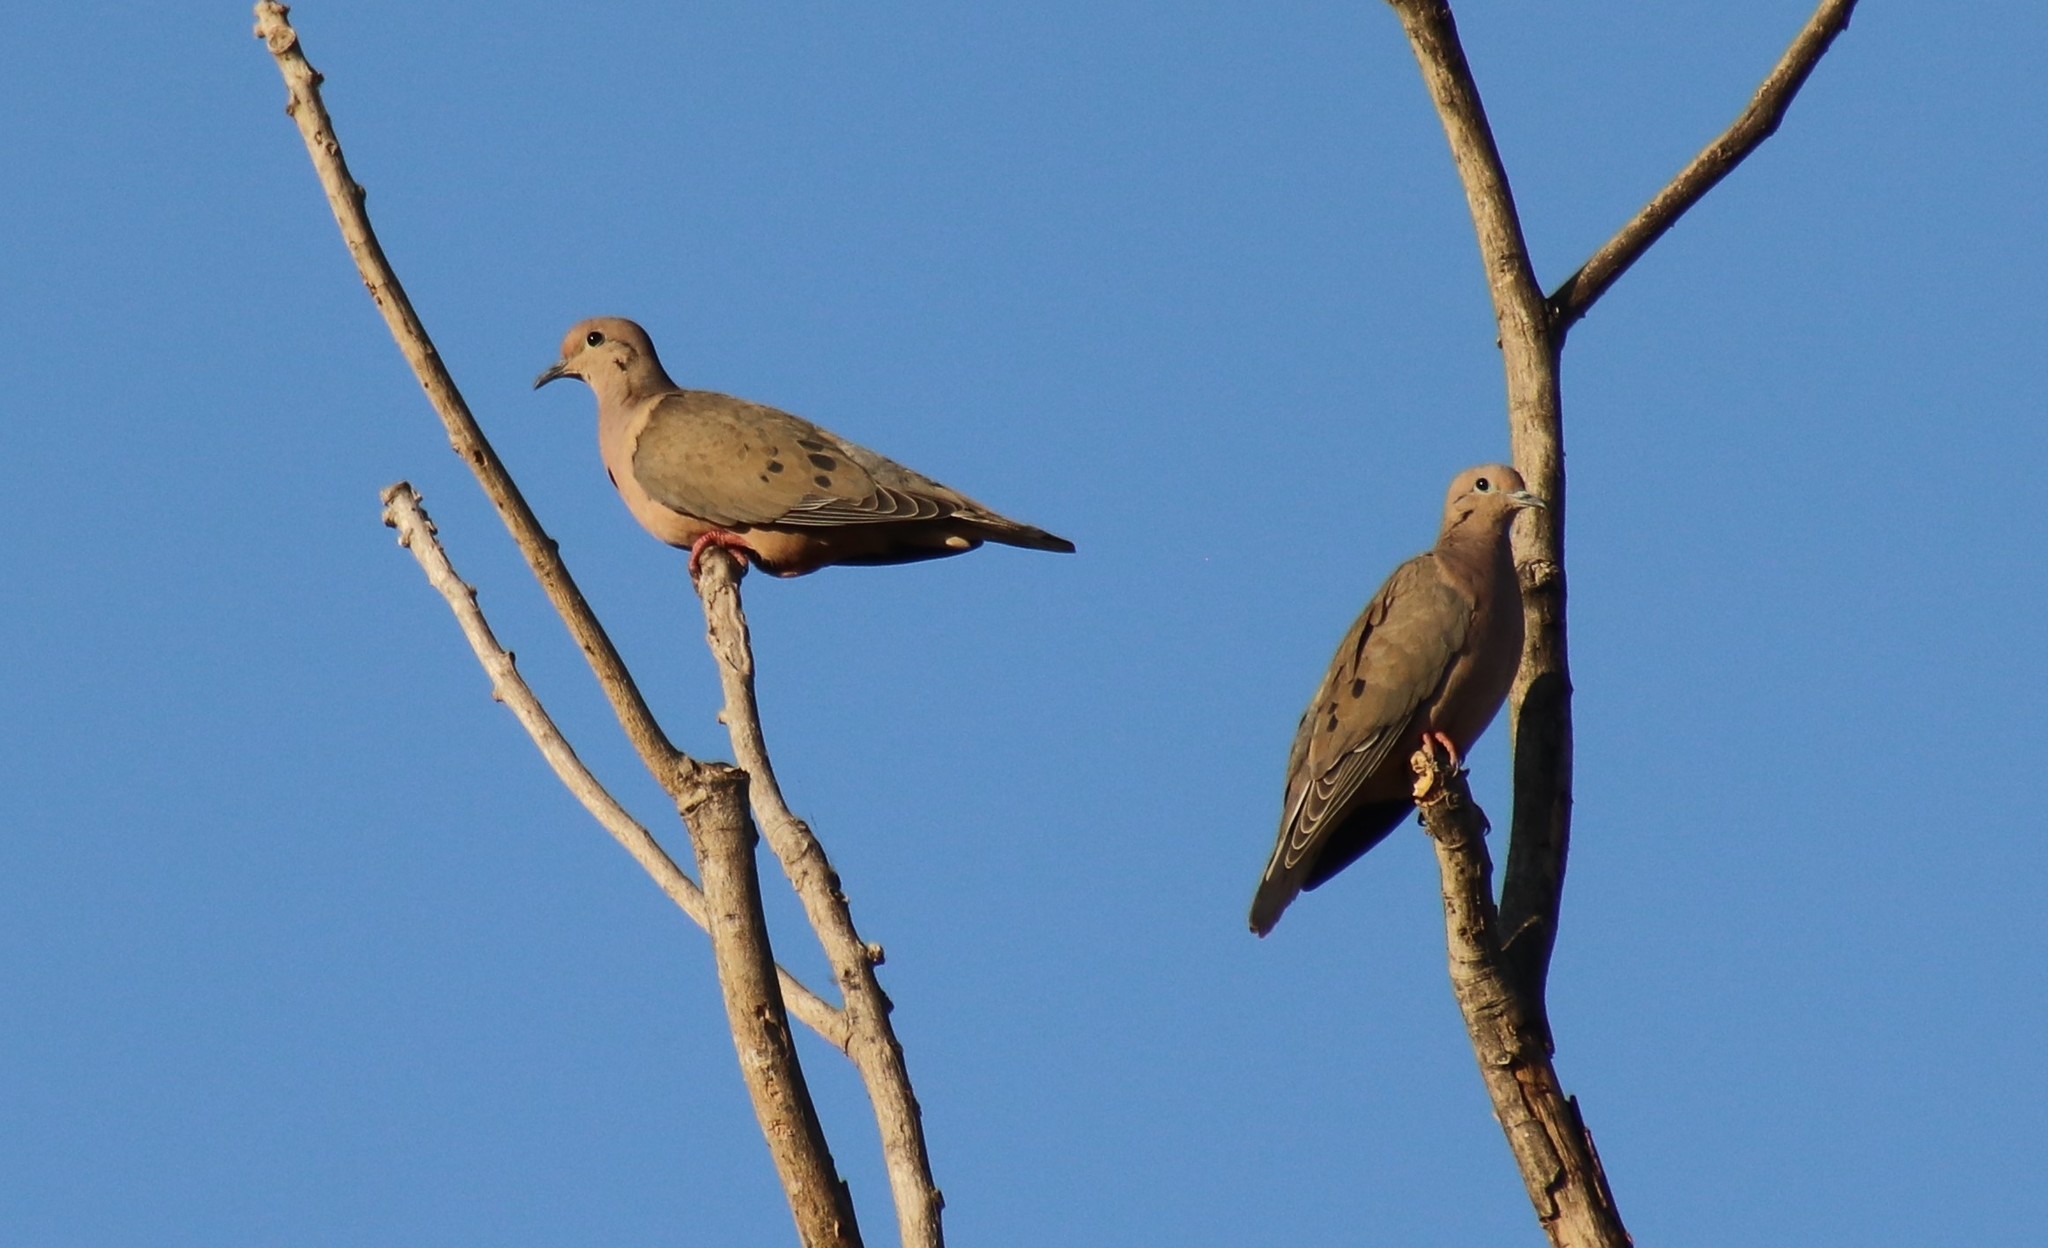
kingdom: Animalia
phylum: Chordata
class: Aves
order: Columbiformes
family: Columbidae
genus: Zenaida
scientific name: Zenaida auriculata
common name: Eared dove
